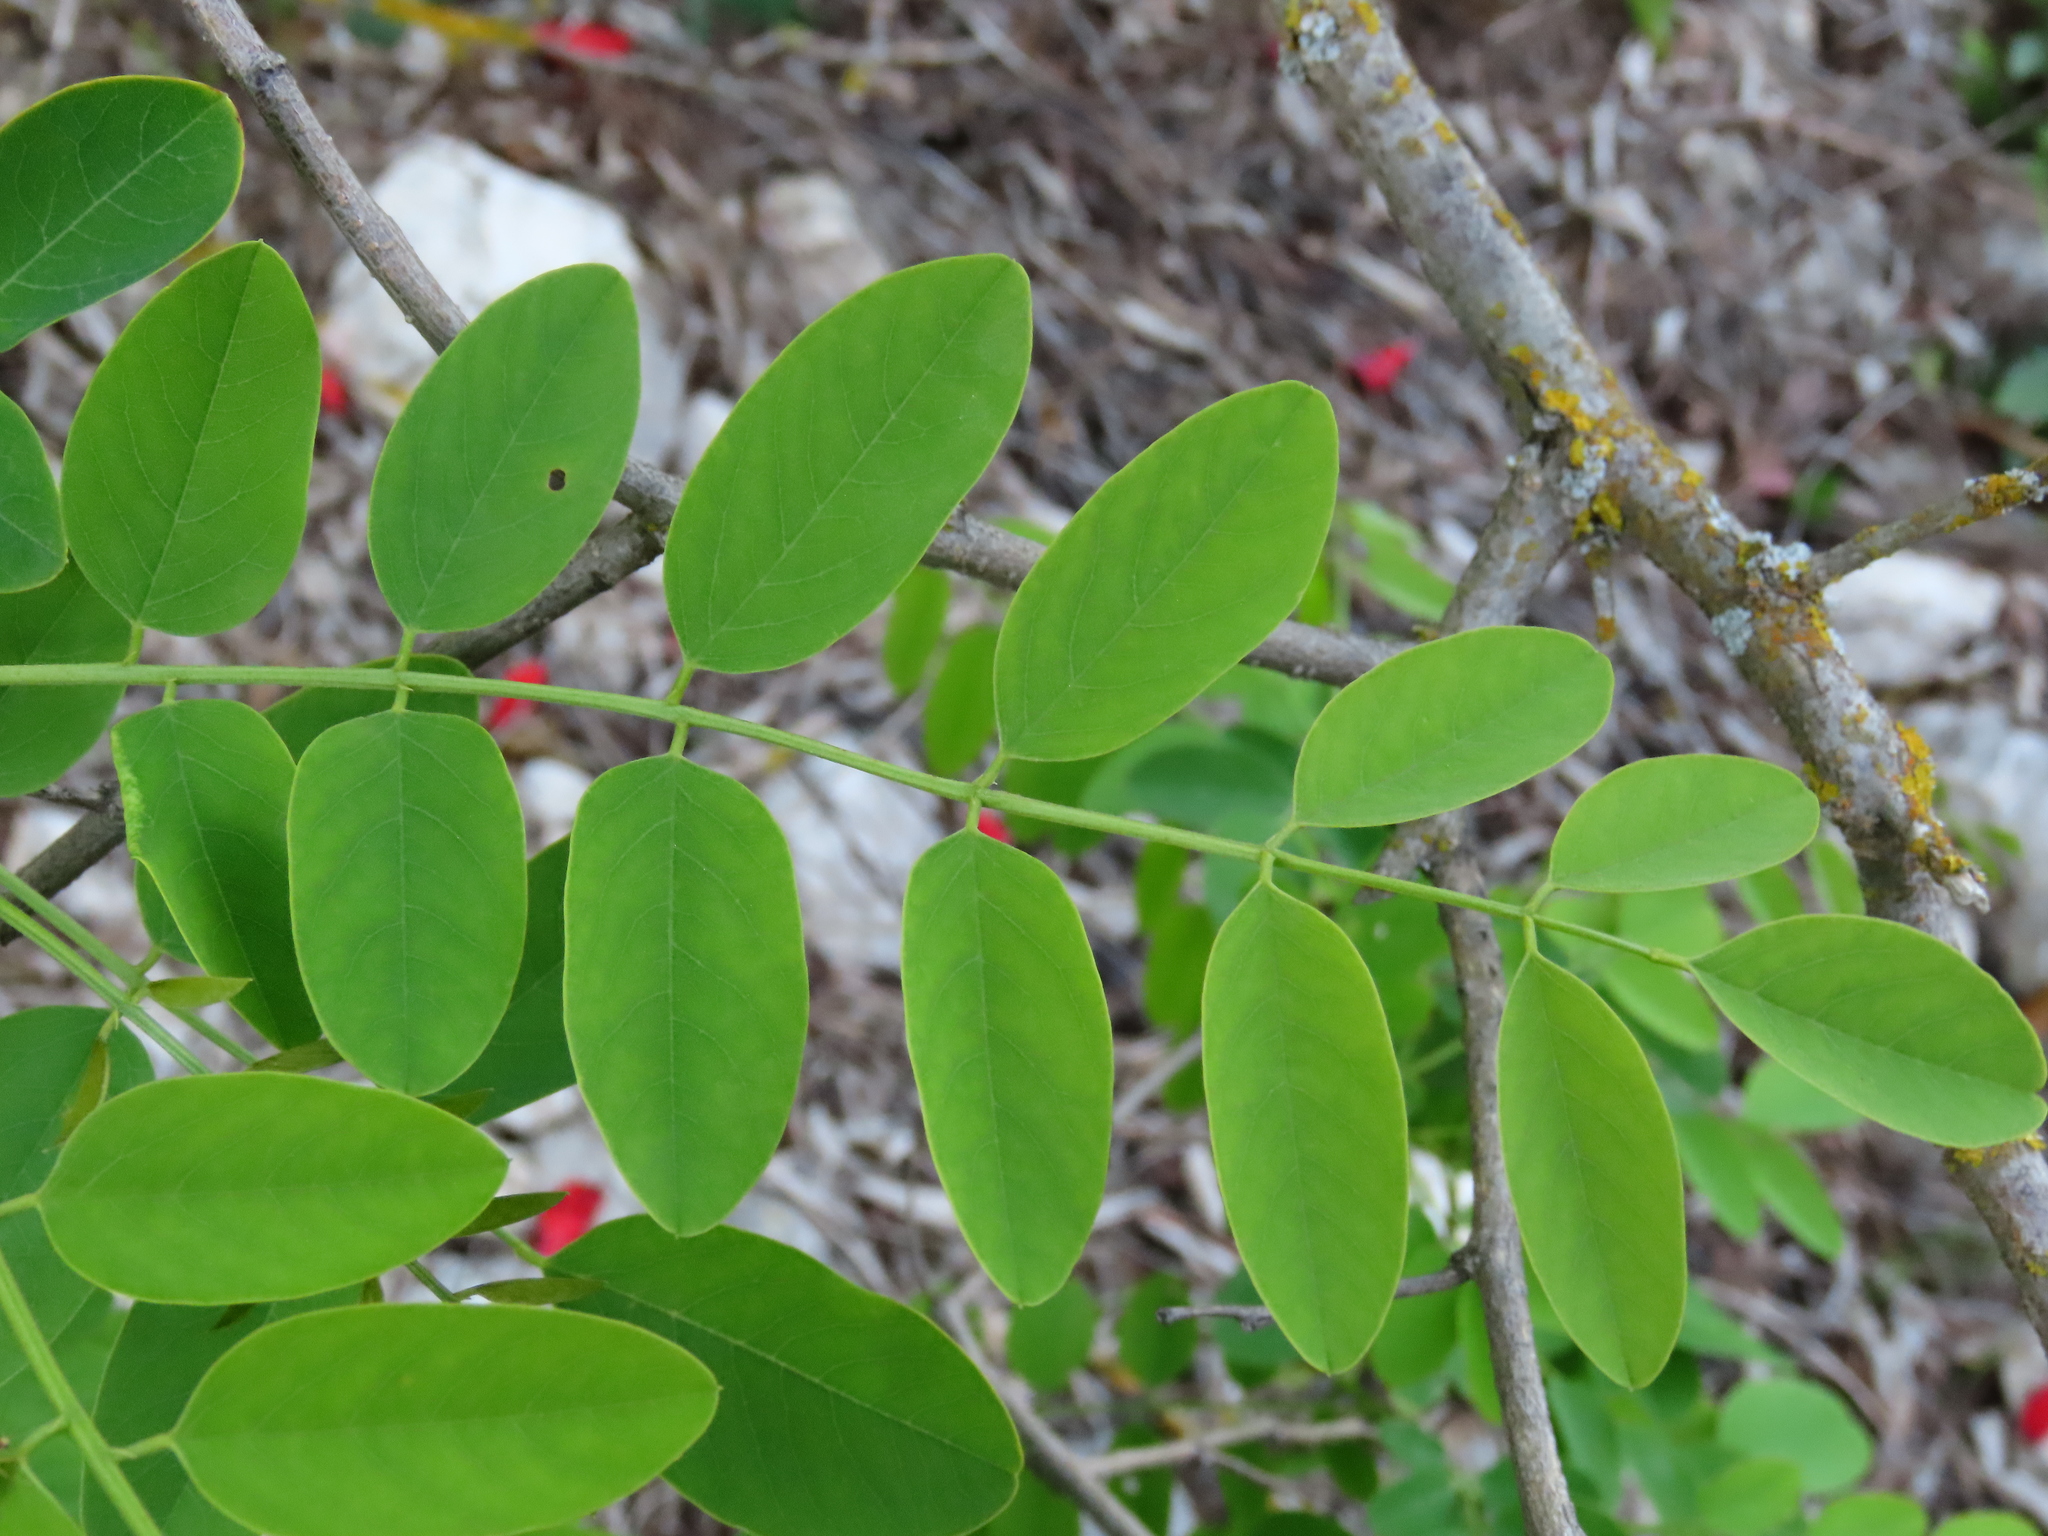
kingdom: Plantae
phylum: Tracheophyta
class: Magnoliopsida
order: Fabales
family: Fabaceae
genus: Robinia
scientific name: Robinia pseudoacacia
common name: Black locust
